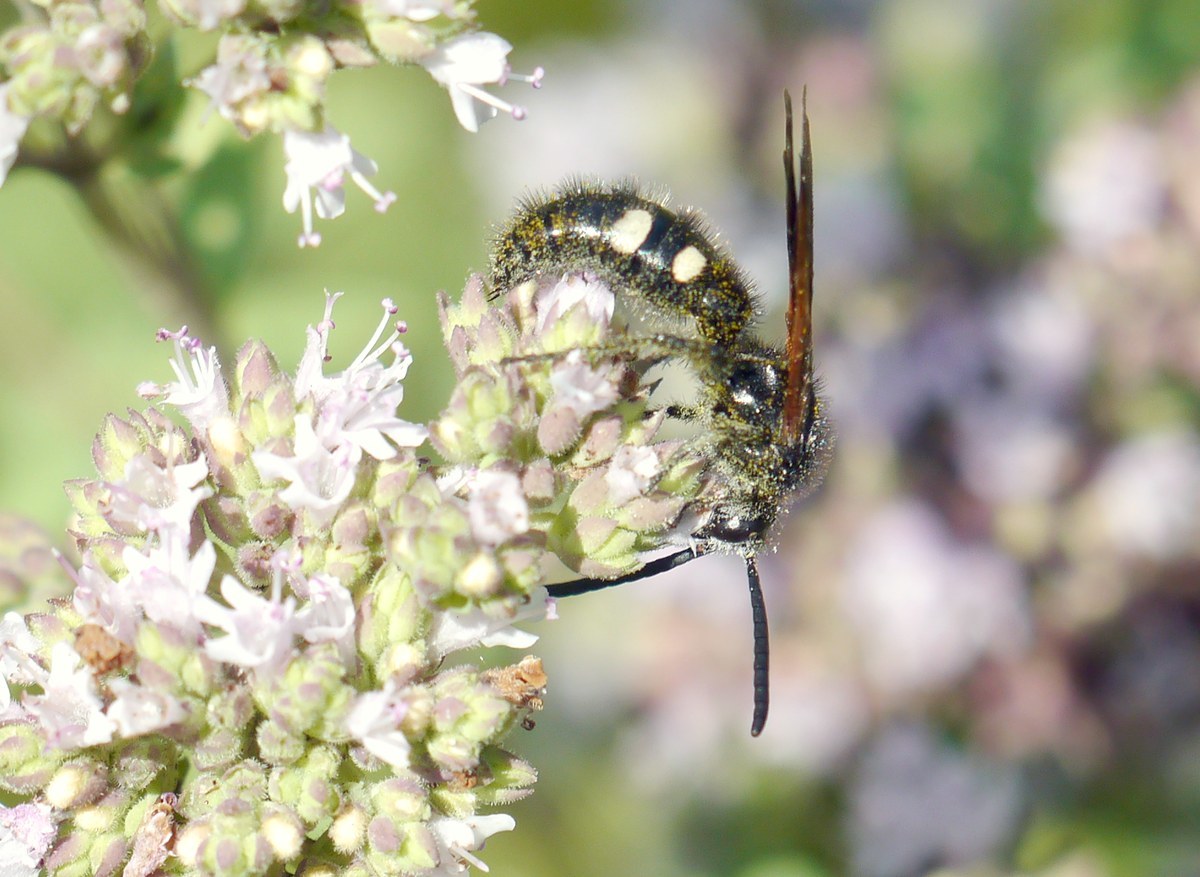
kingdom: Animalia
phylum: Arthropoda
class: Insecta
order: Hymenoptera
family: Vespidae
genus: Vespa
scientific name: Vespa sexmaculata
